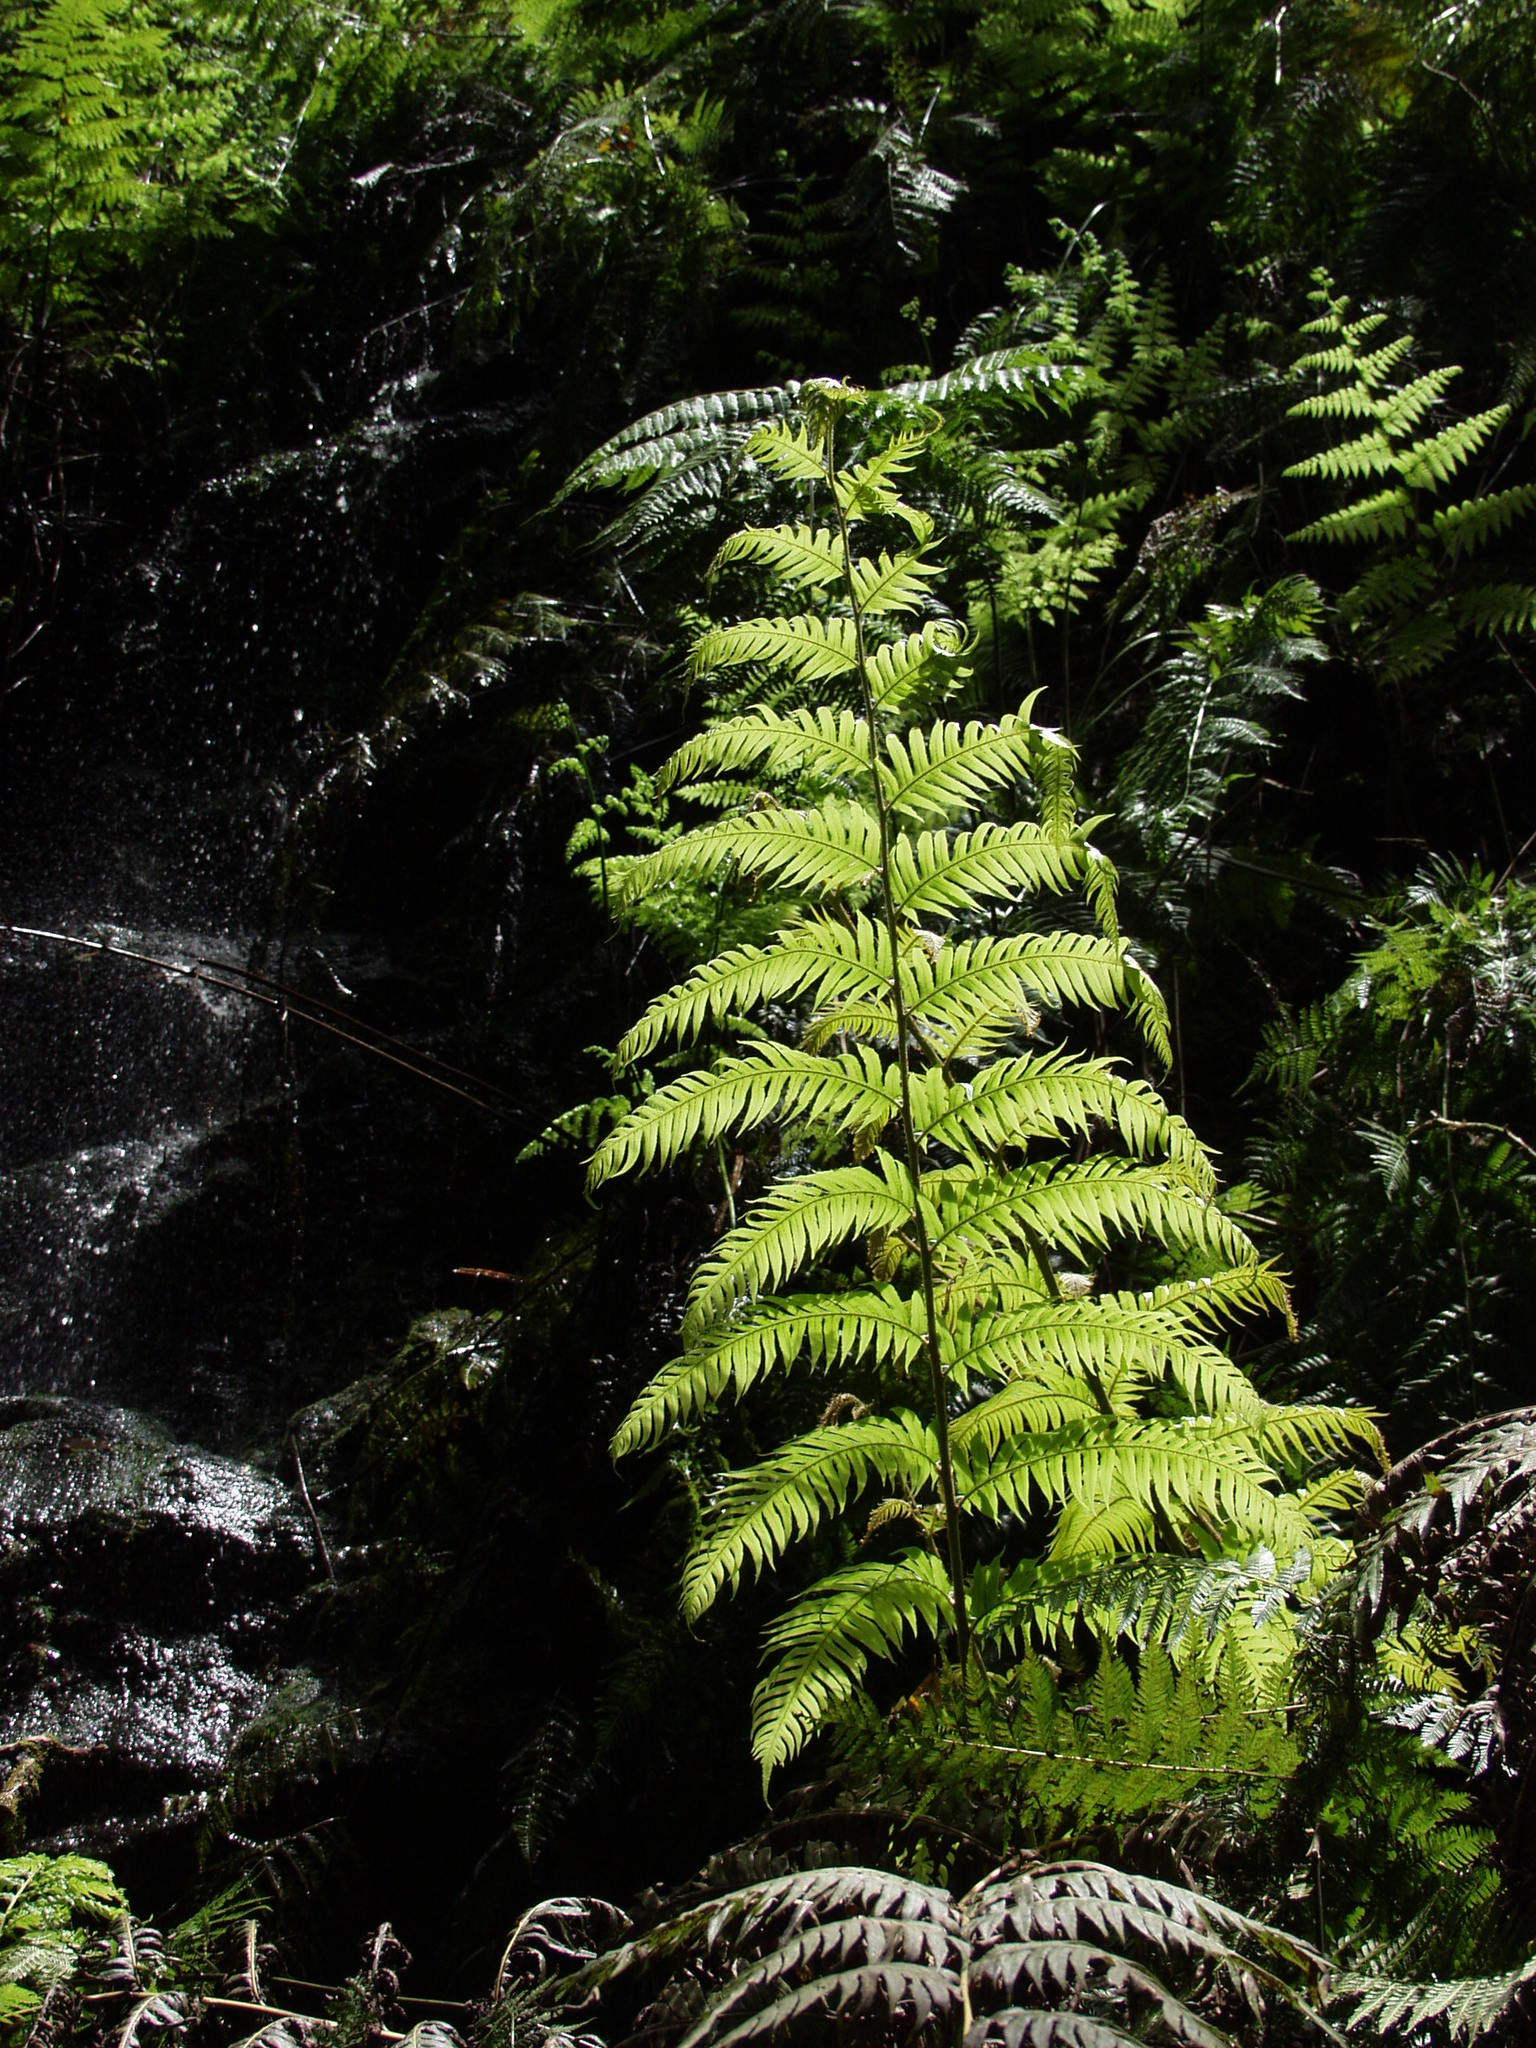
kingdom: Plantae
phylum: Tracheophyta
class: Polypodiopsida
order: Polypodiales
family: Blechnaceae
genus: Woodwardia
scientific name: Woodwardia radicans
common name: Rooting chainfern
